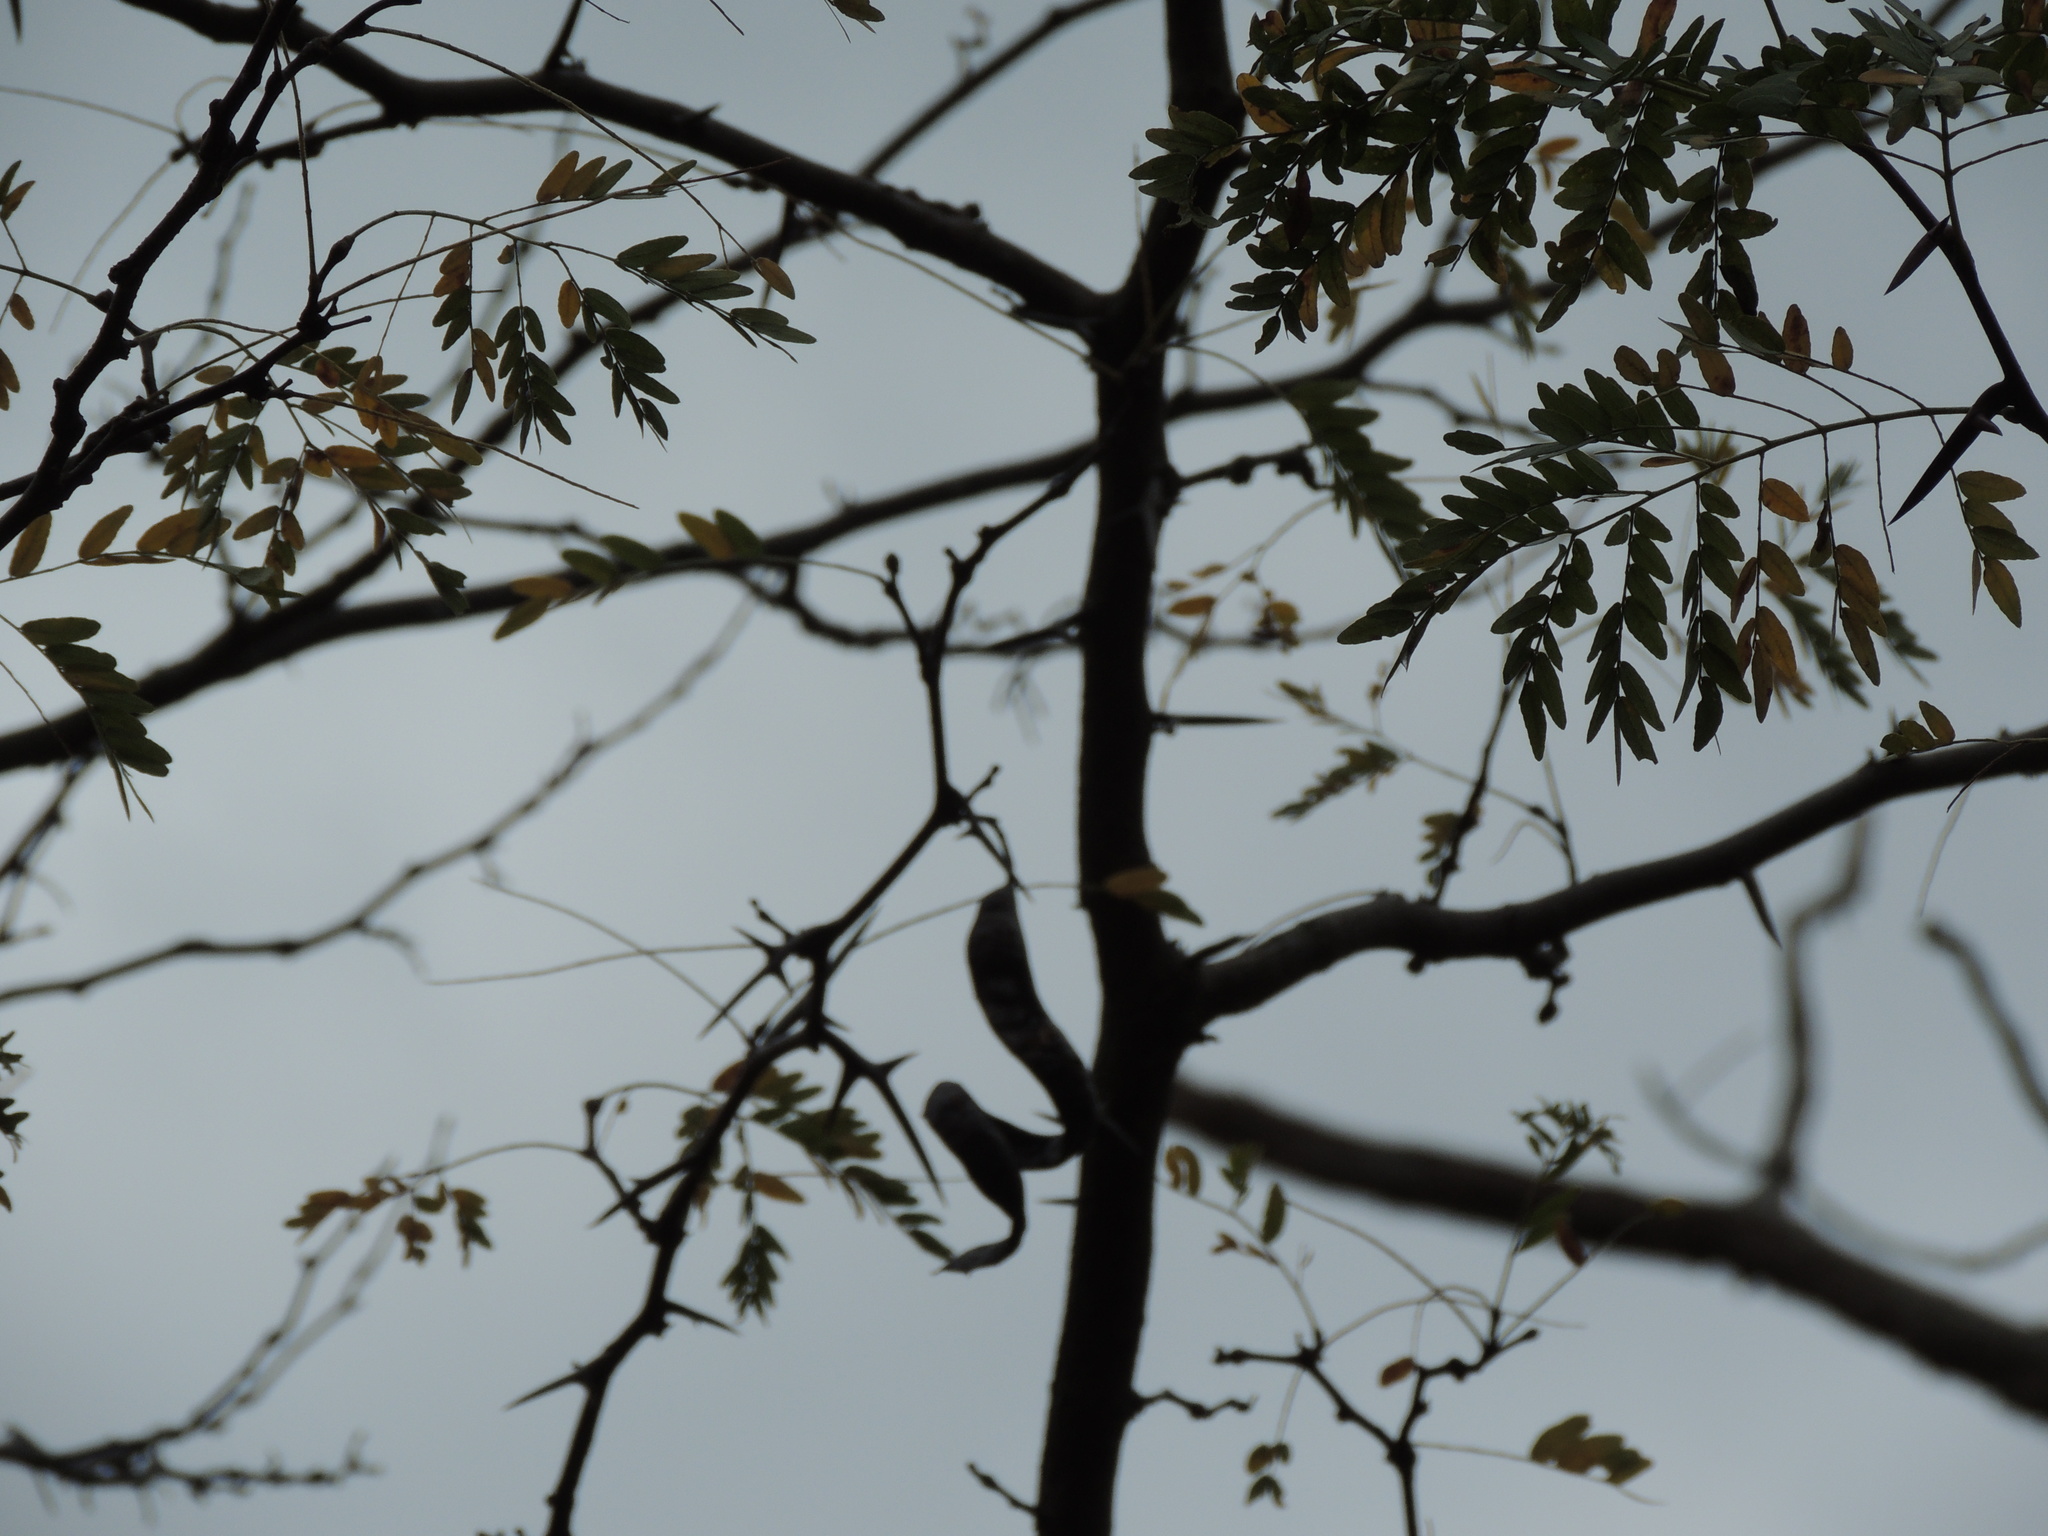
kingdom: Plantae
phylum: Tracheophyta
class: Magnoliopsida
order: Fabales
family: Fabaceae
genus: Gleditsia
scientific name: Gleditsia triacanthos
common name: Common honeylocust
